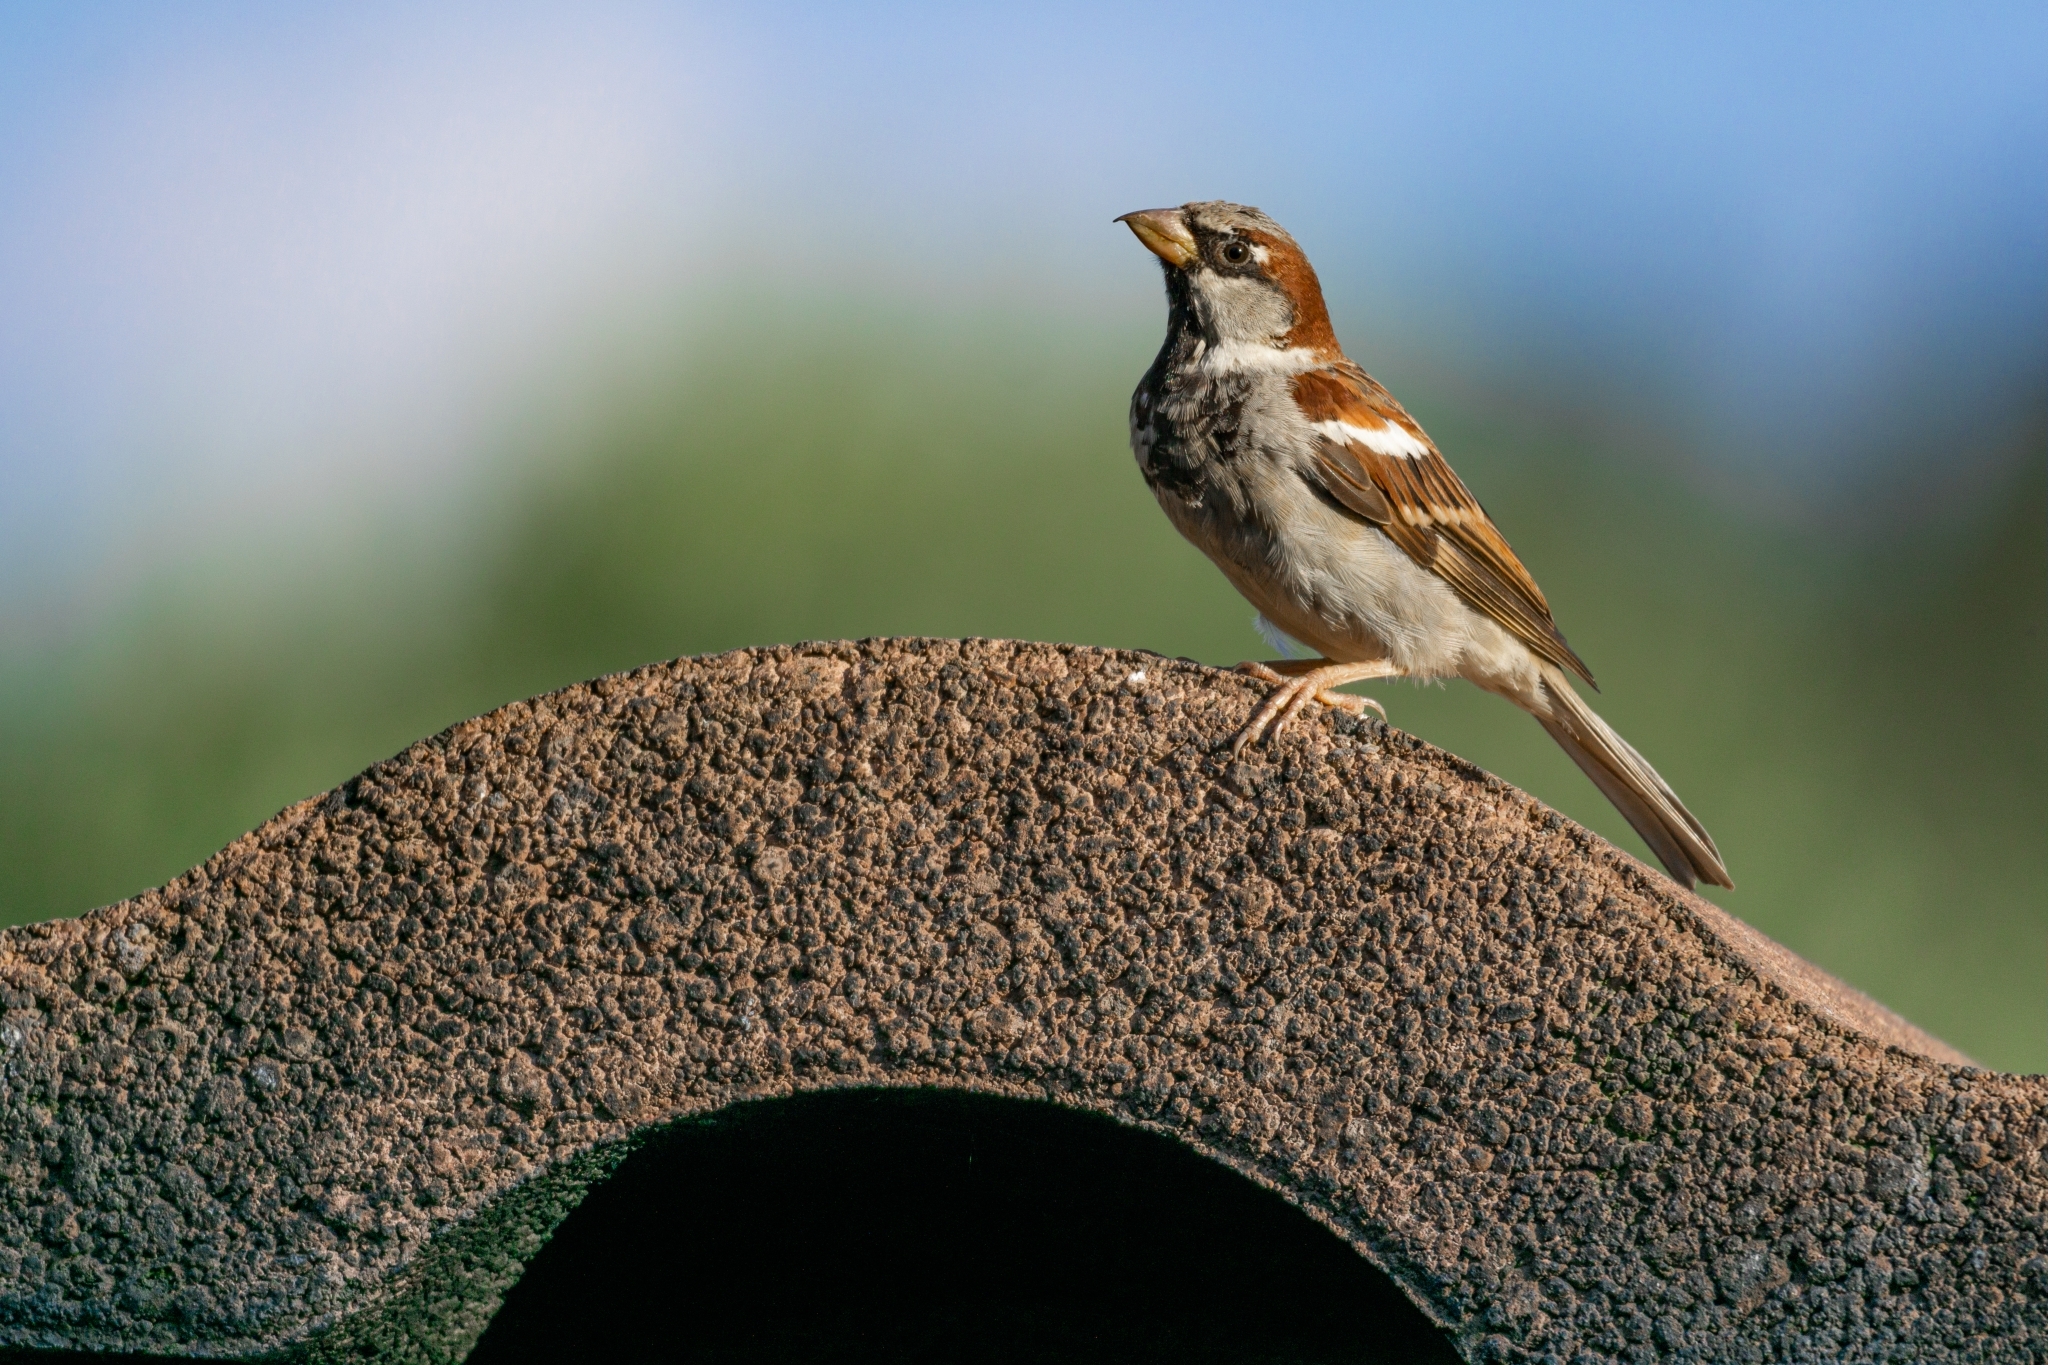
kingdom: Animalia
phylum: Chordata
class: Aves
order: Passeriformes
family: Passeridae
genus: Passer
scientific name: Passer domesticus
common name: House sparrow
